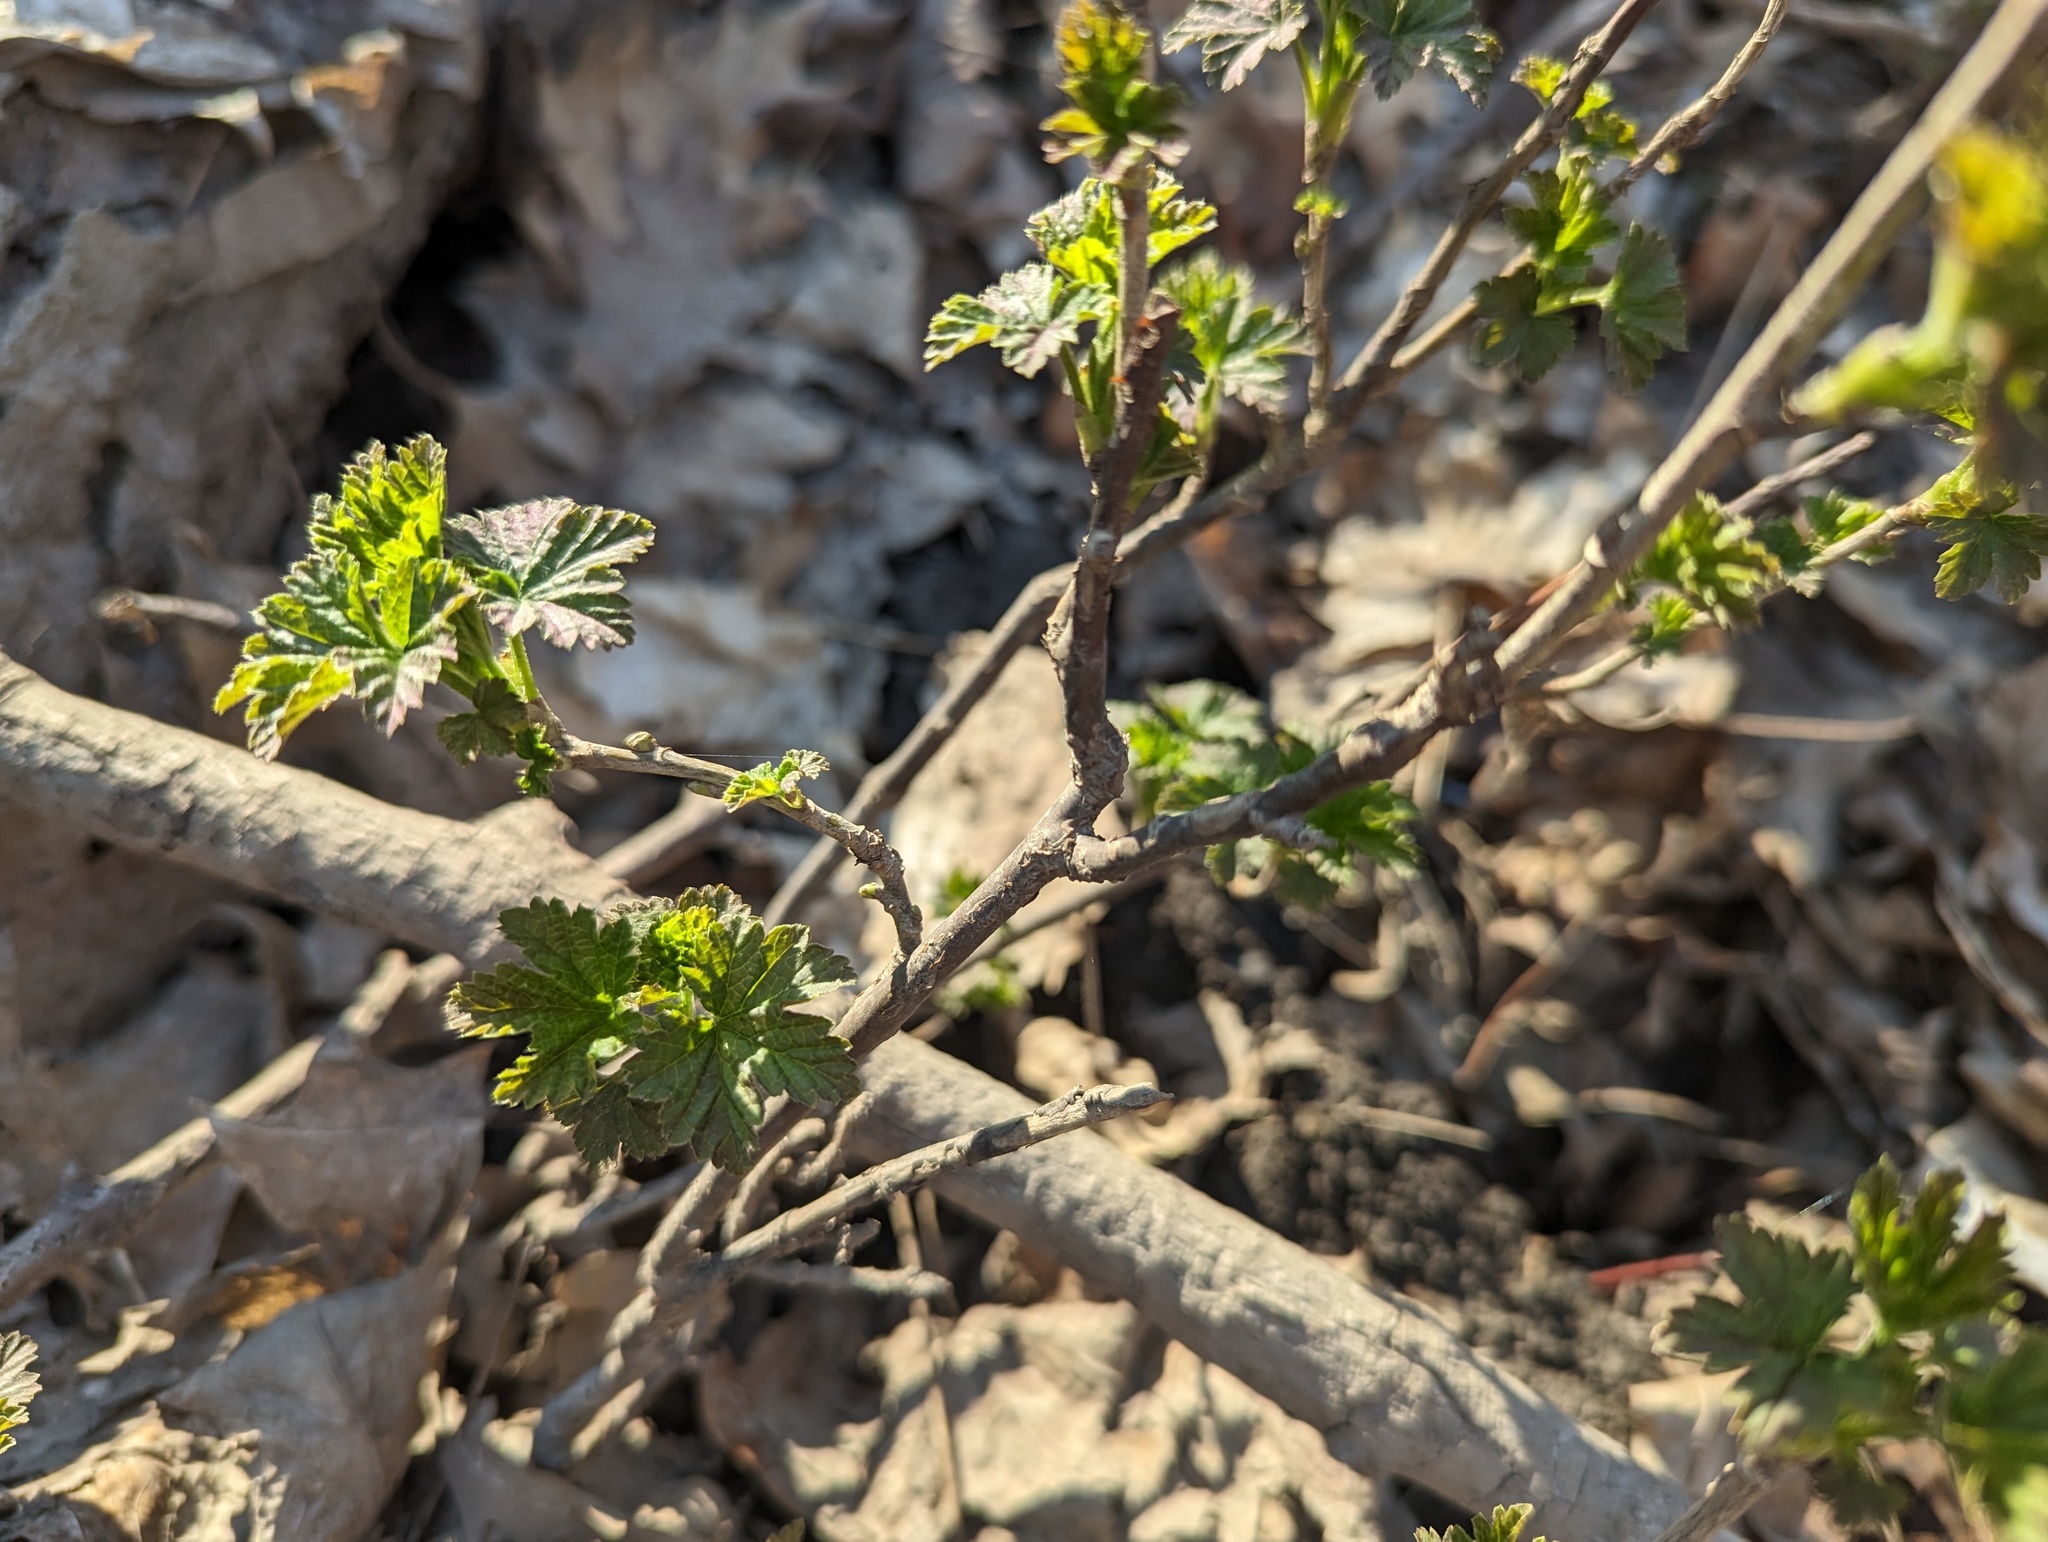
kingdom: Plantae
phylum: Tracheophyta
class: Magnoliopsida
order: Saxifragales
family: Grossulariaceae
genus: Ribes
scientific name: Ribes rubrum
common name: Red currant
